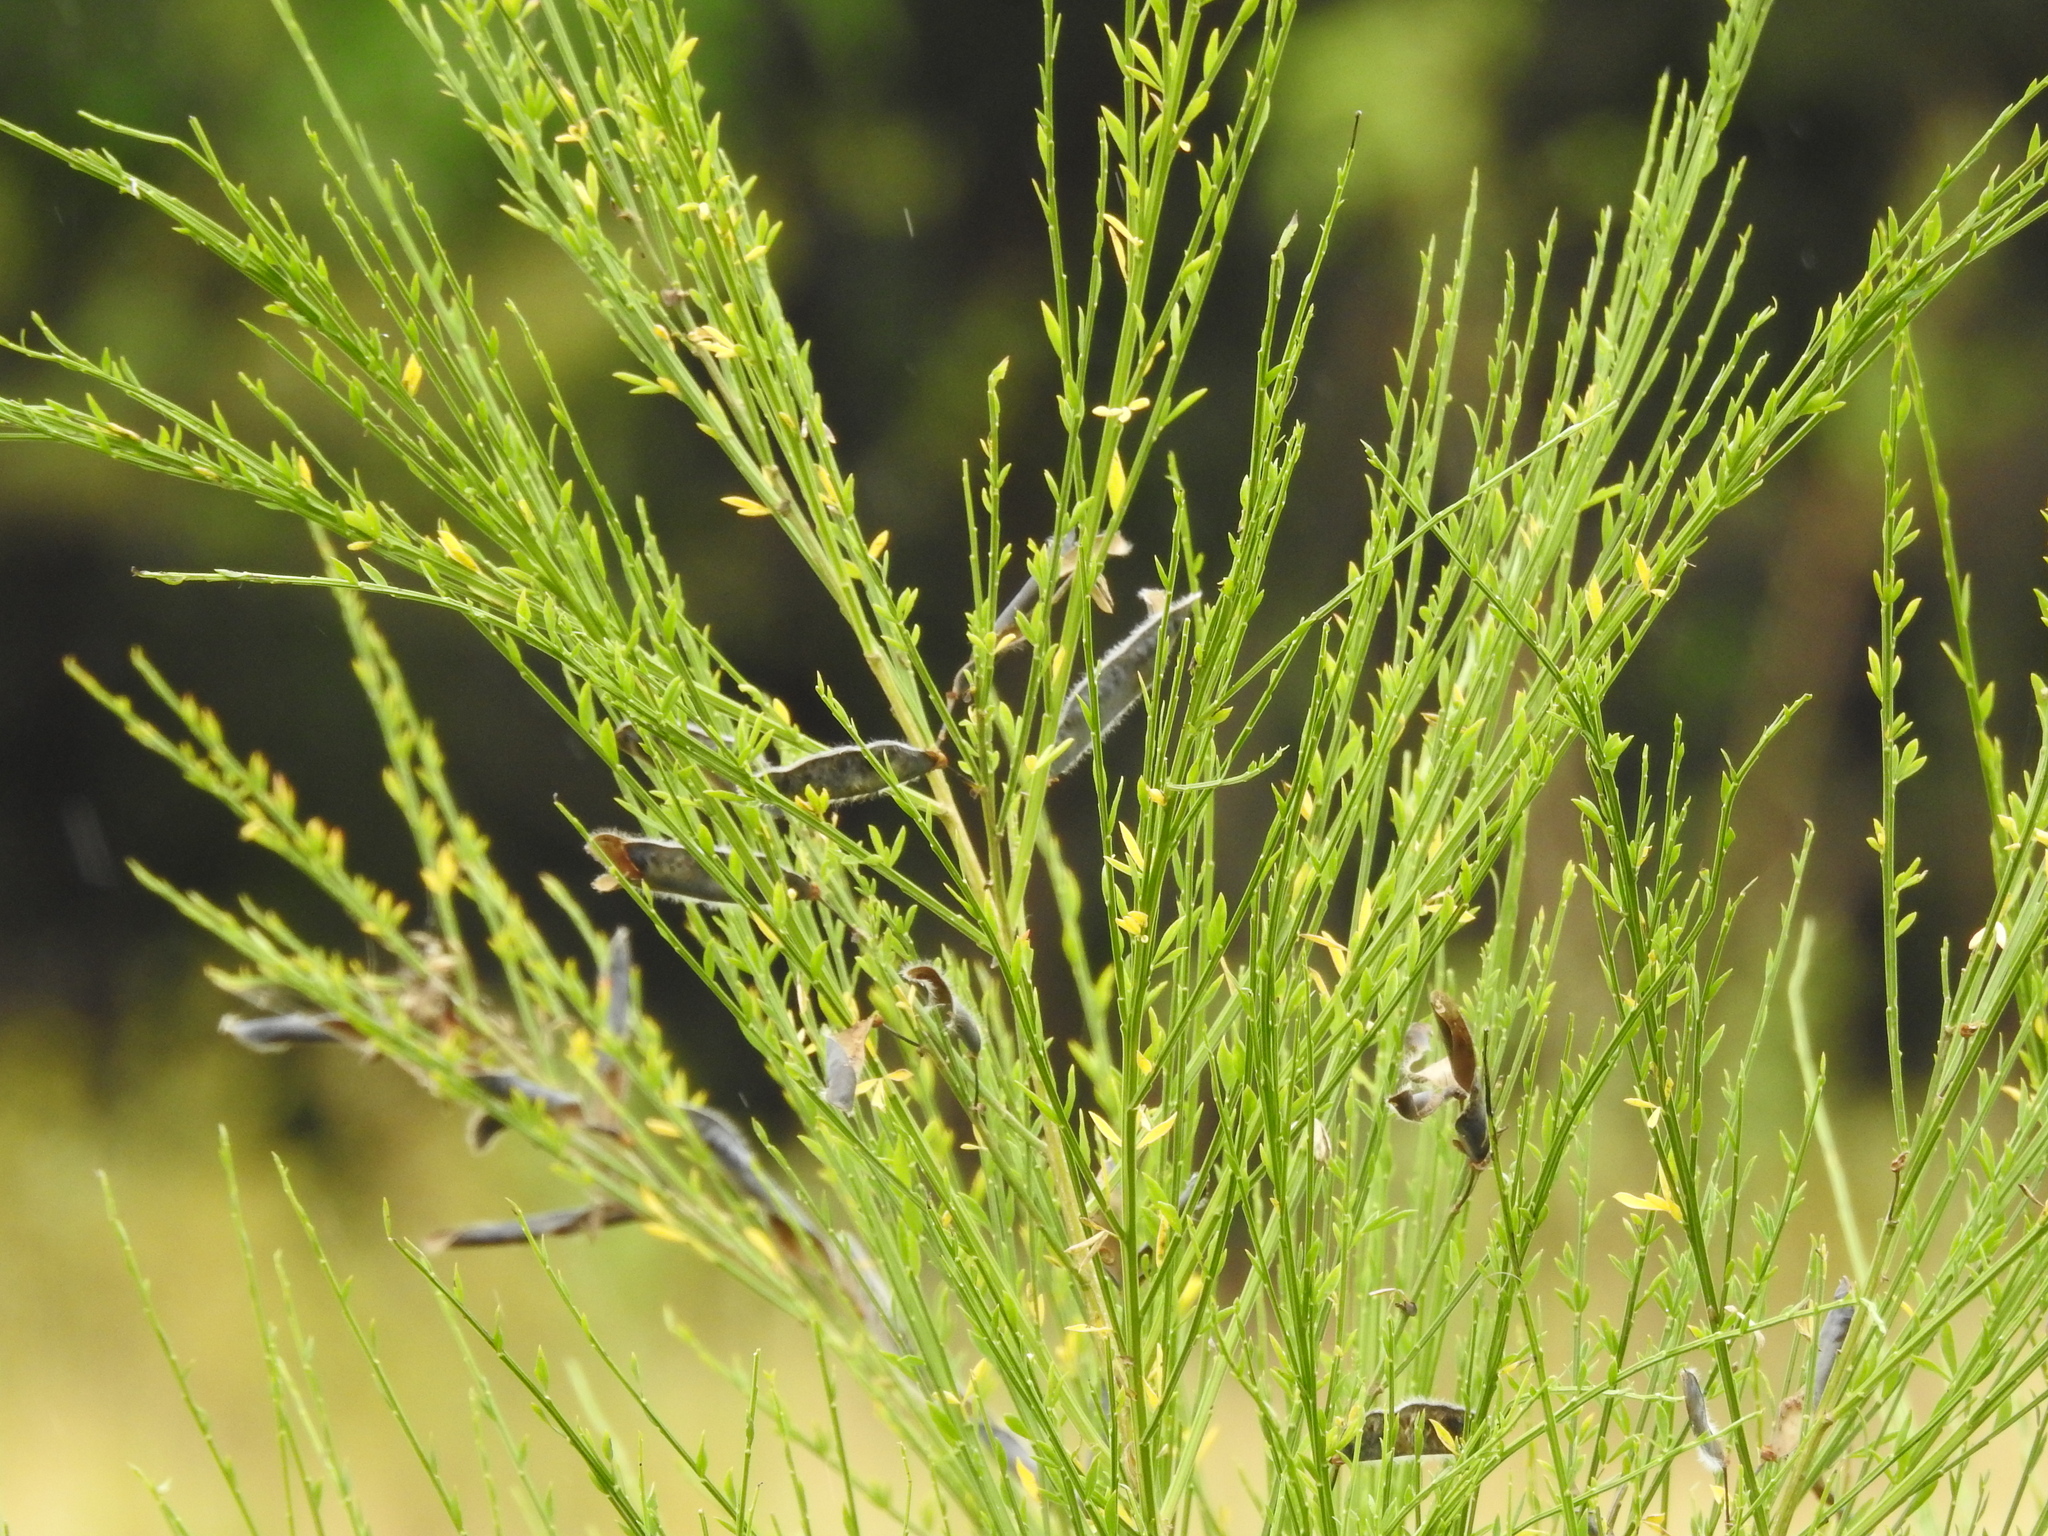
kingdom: Plantae
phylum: Tracheophyta
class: Magnoliopsida
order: Fabales
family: Fabaceae
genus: Cytisus
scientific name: Cytisus scoparius
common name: Scotch broom
